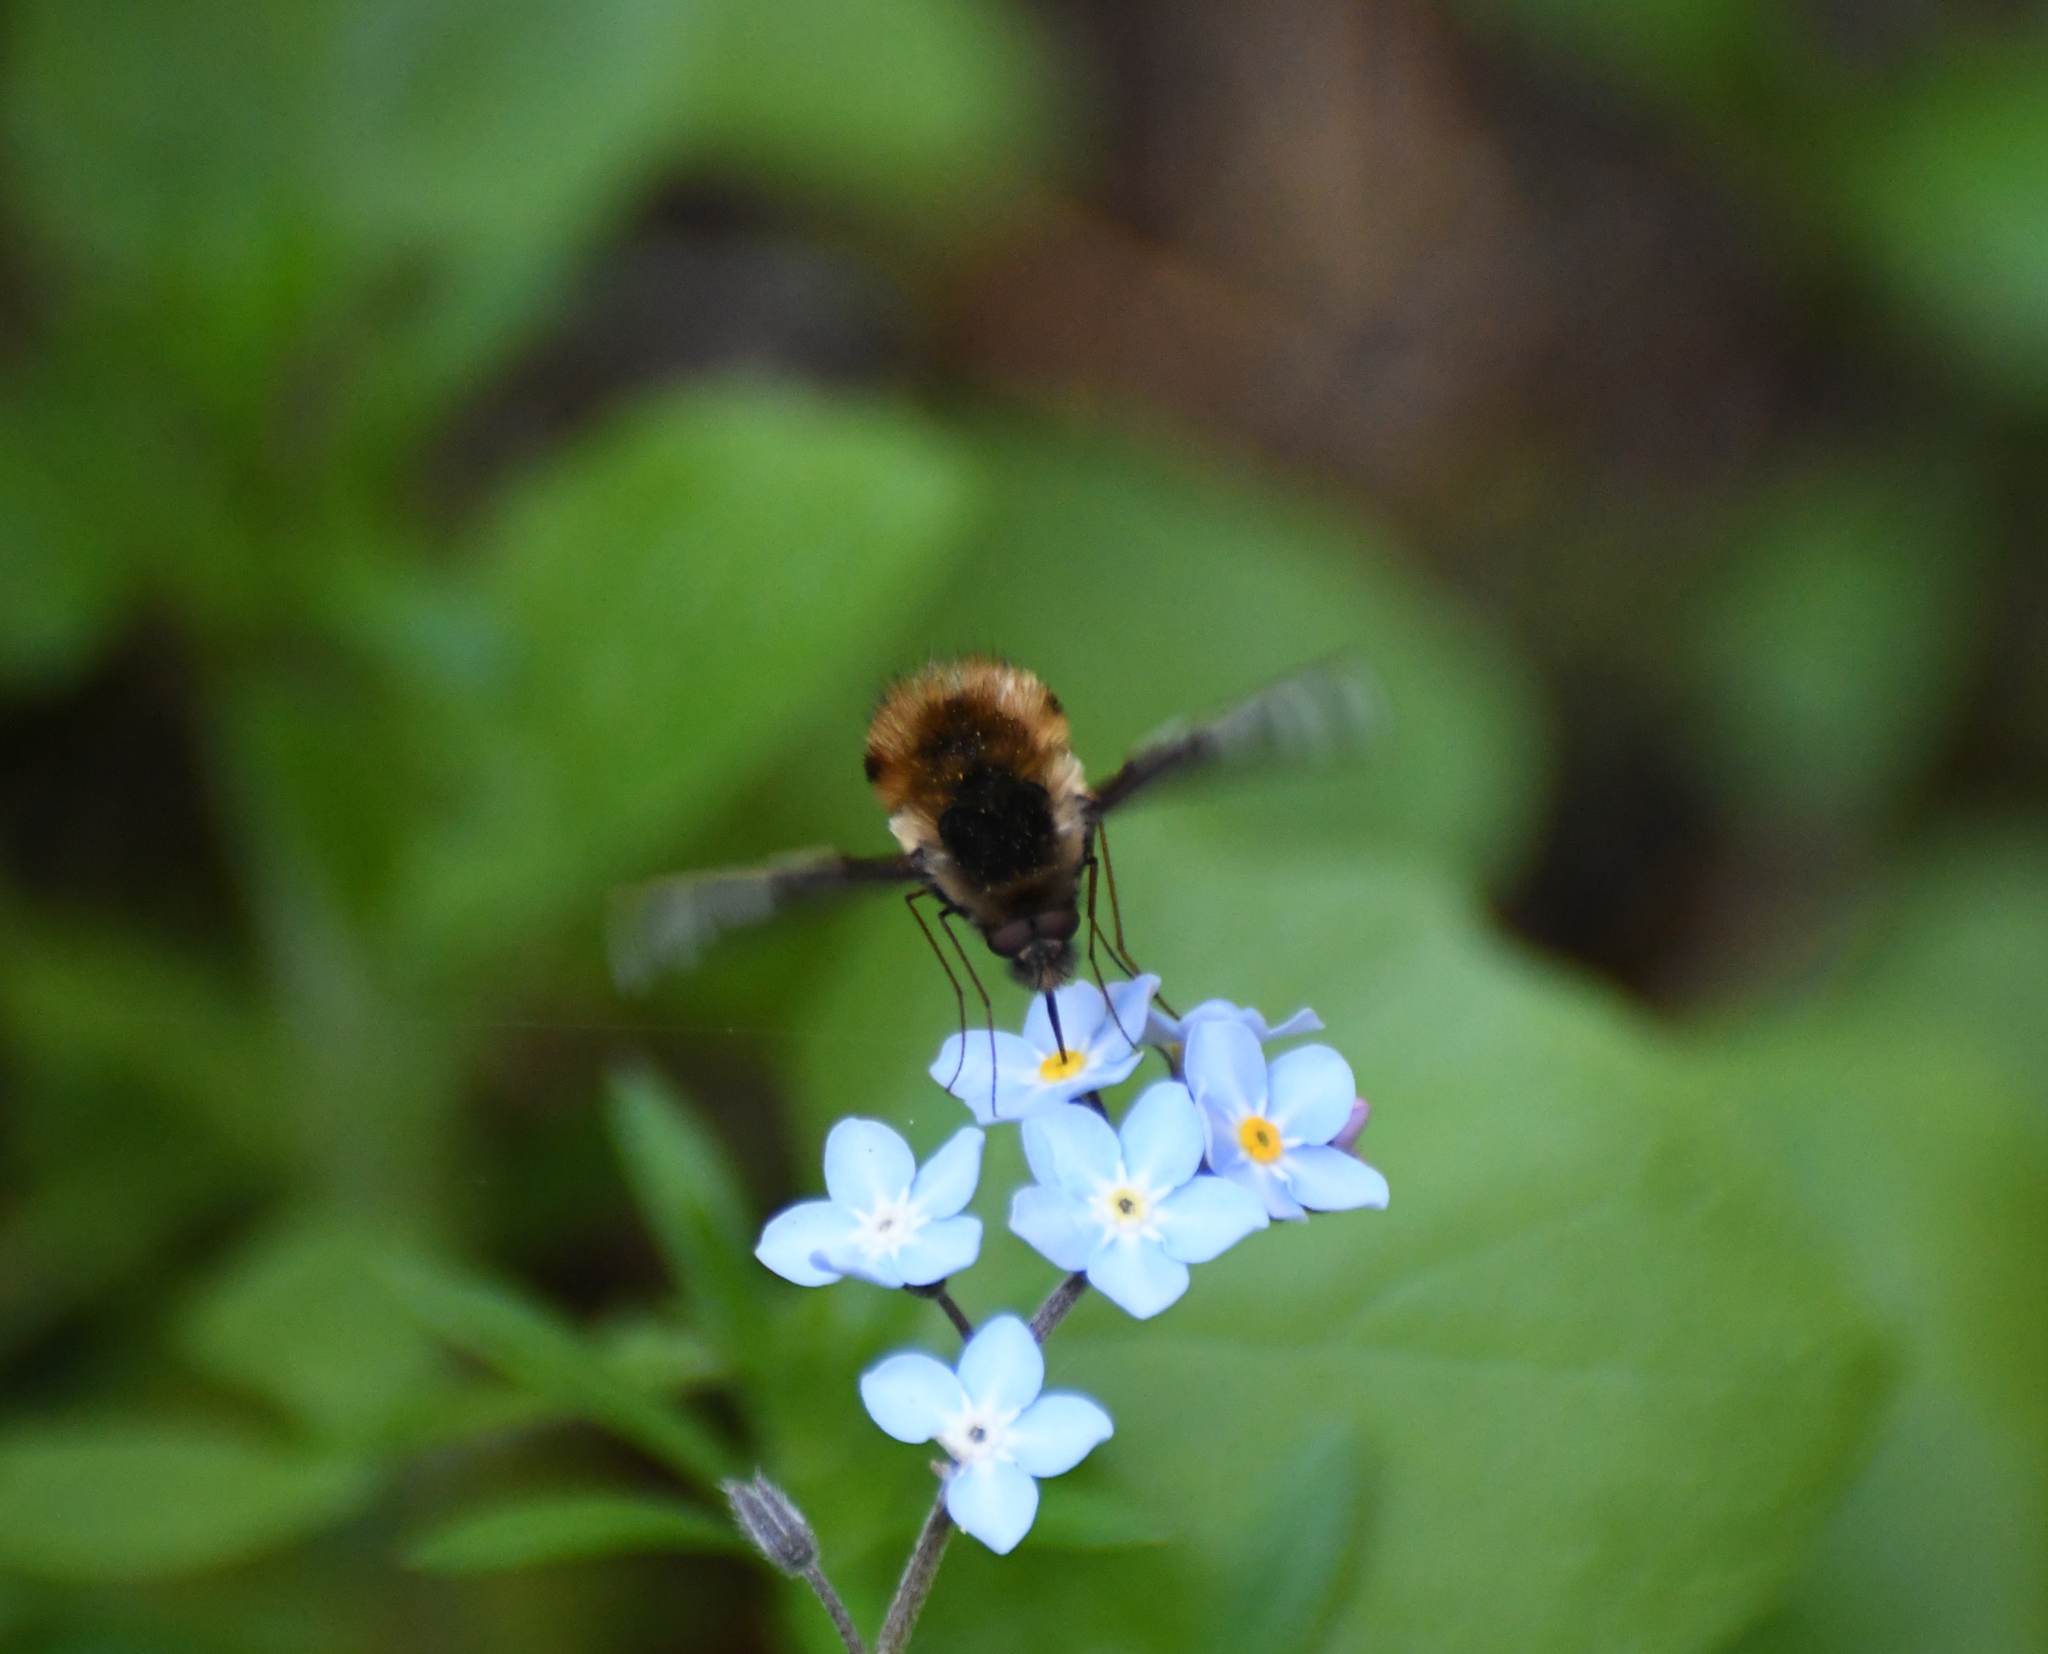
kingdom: Animalia
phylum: Arthropoda
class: Insecta
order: Diptera
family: Bombyliidae
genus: Bombylius
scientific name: Bombylius major
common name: Bee fly
